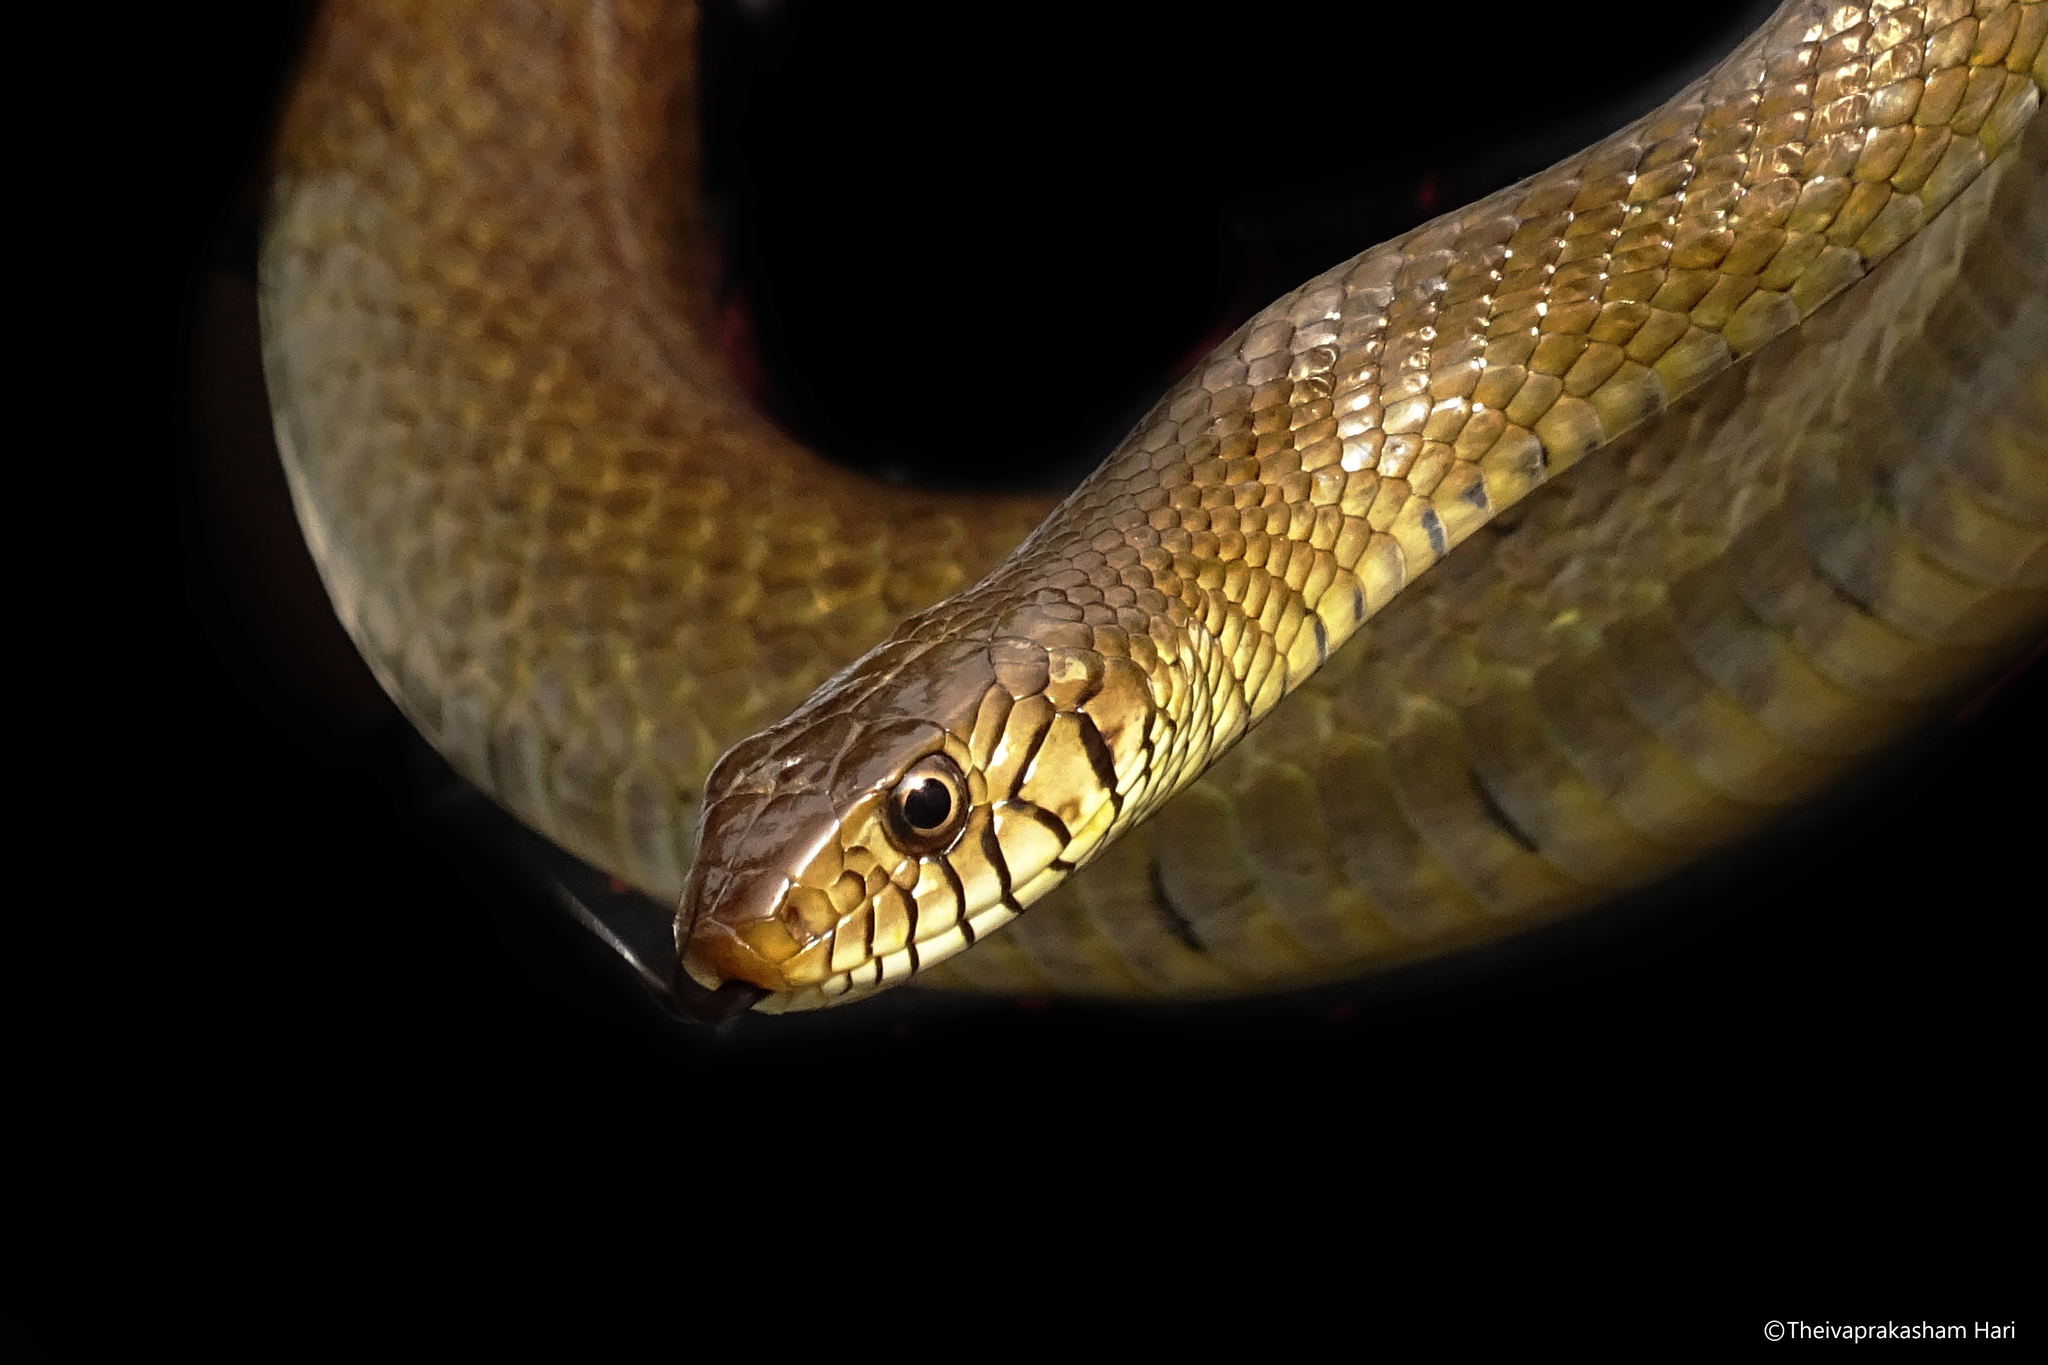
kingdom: Animalia
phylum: Chordata
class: Squamata
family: Colubridae
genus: Ptyas
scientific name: Ptyas mucosa
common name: Oriental ratsnake
